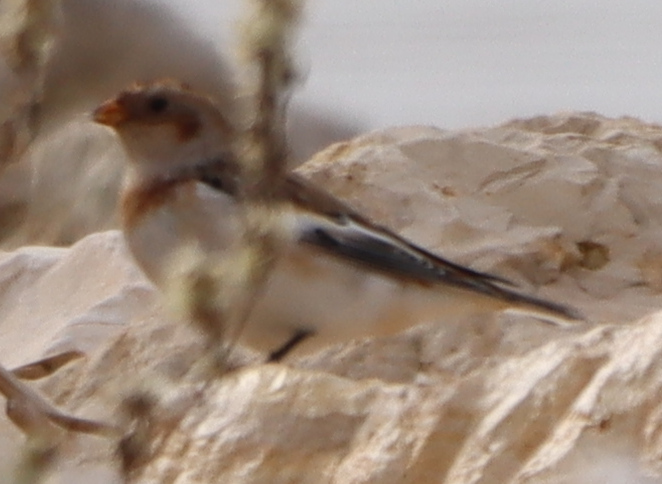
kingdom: Animalia
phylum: Chordata
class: Aves
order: Passeriformes
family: Calcariidae
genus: Plectrophenax
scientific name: Plectrophenax nivalis
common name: Snow bunting
